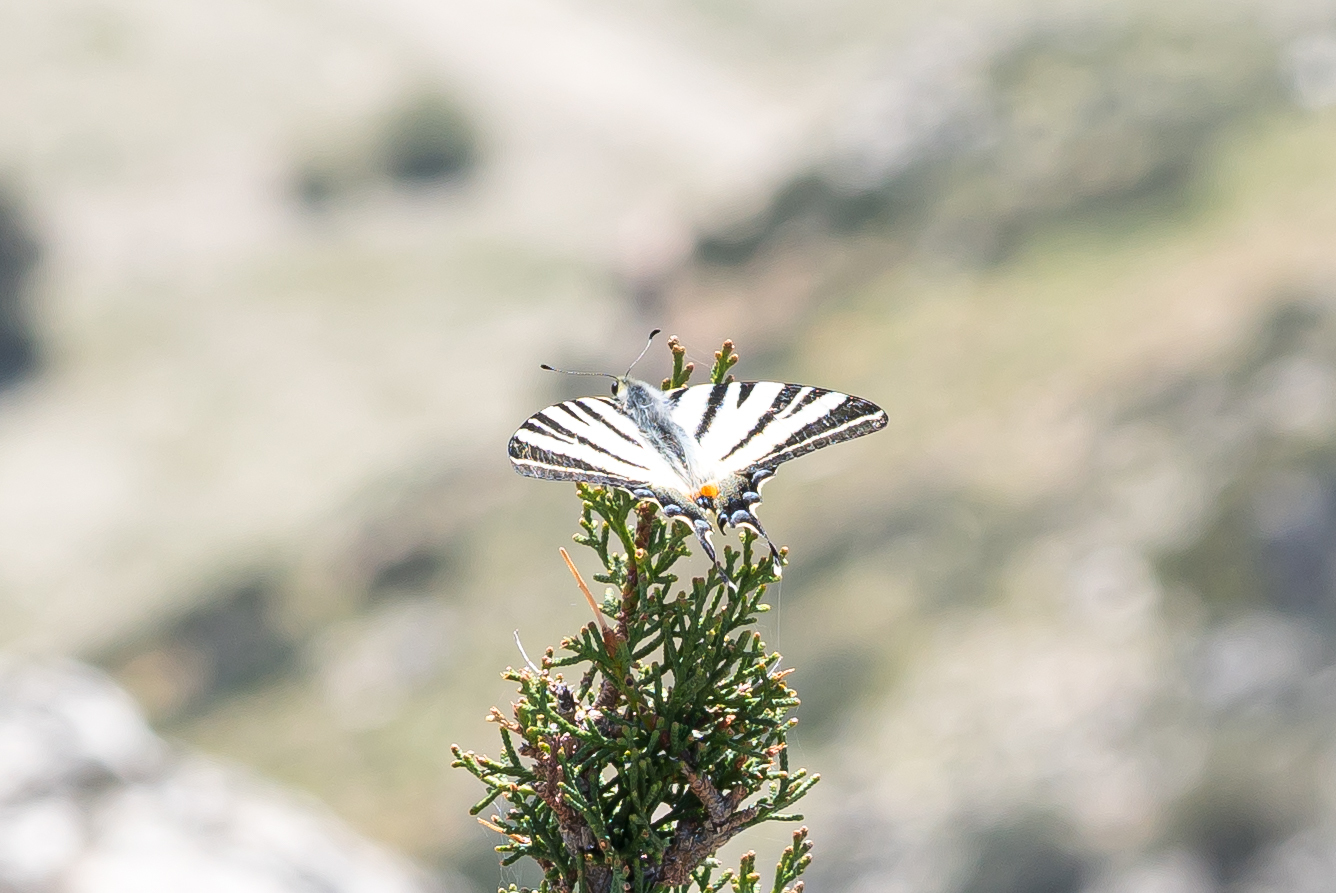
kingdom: Animalia
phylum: Arthropoda
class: Insecta
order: Lepidoptera
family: Papilionidae
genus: Iphiclides
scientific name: Iphiclides podalirius
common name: Scarce swallowtail
